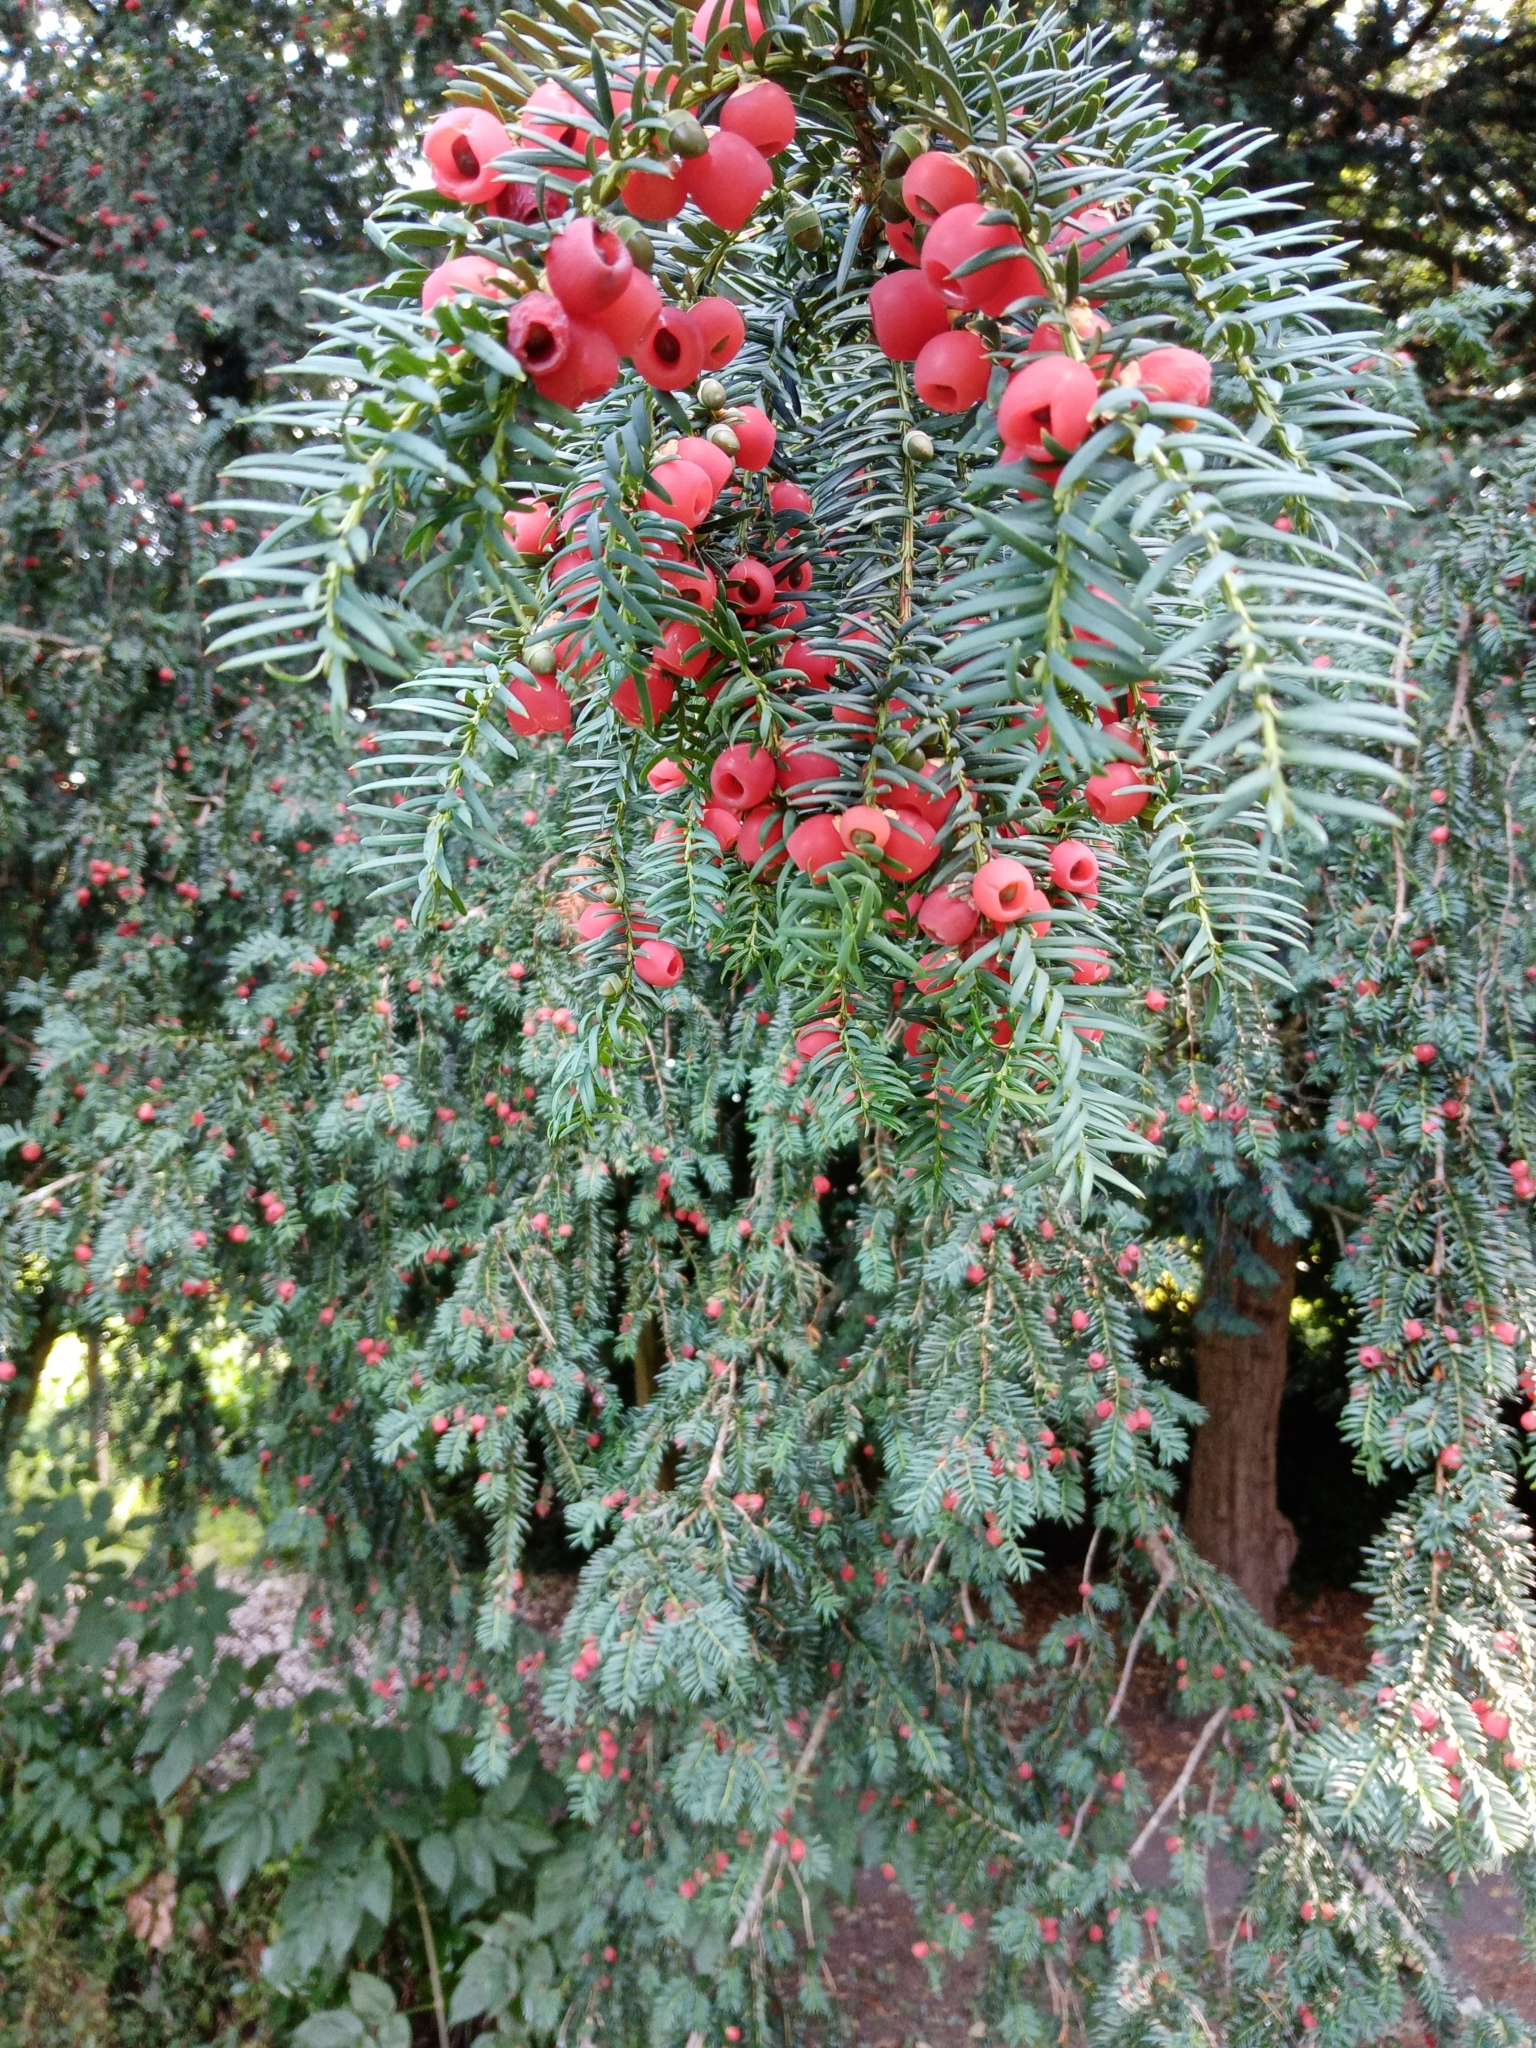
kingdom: Plantae
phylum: Tracheophyta
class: Pinopsida
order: Pinales
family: Taxaceae
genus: Taxus
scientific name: Taxus baccata
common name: Yew
